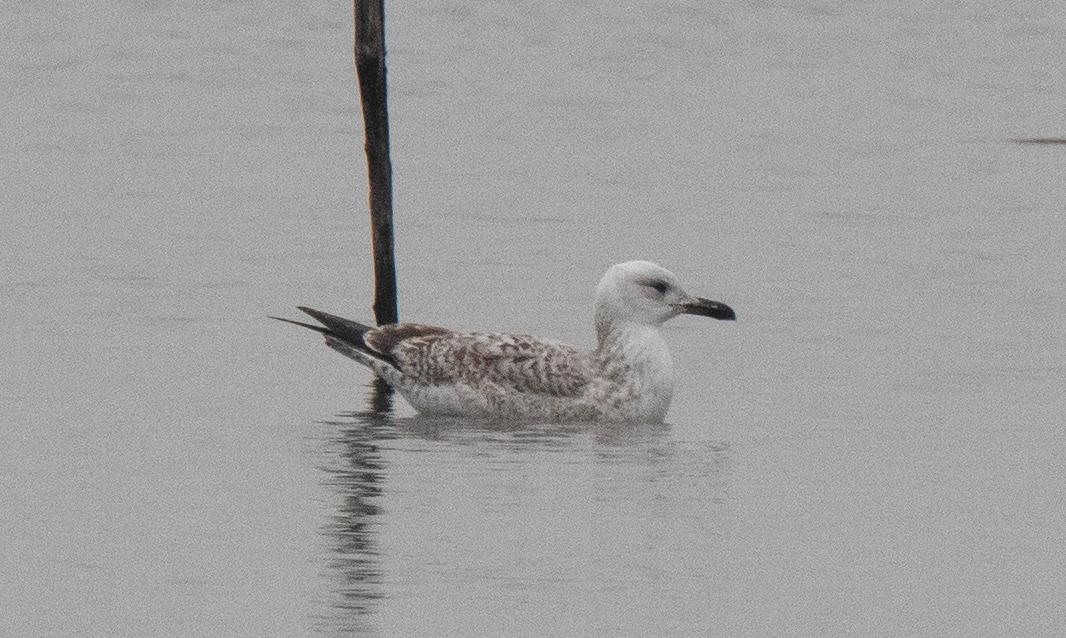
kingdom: Animalia
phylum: Chordata
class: Aves
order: Charadriiformes
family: Laridae
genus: Larus
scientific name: Larus cachinnans
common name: Caspian gull
